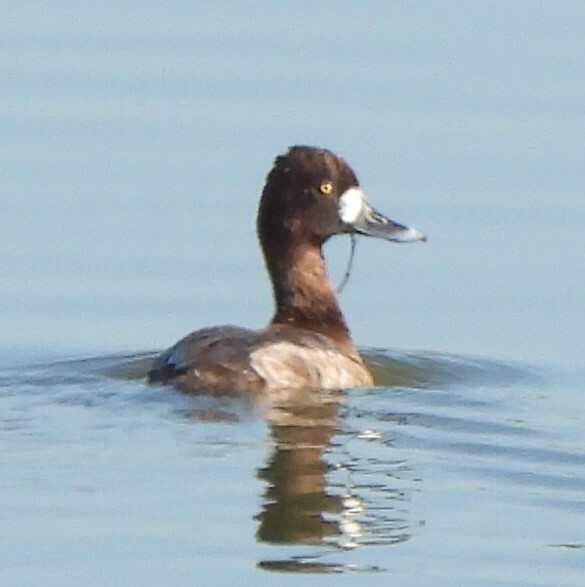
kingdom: Animalia
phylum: Chordata
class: Aves
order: Anseriformes
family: Anatidae
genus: Aythya
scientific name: Aythya affinis
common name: Lesser scaup
